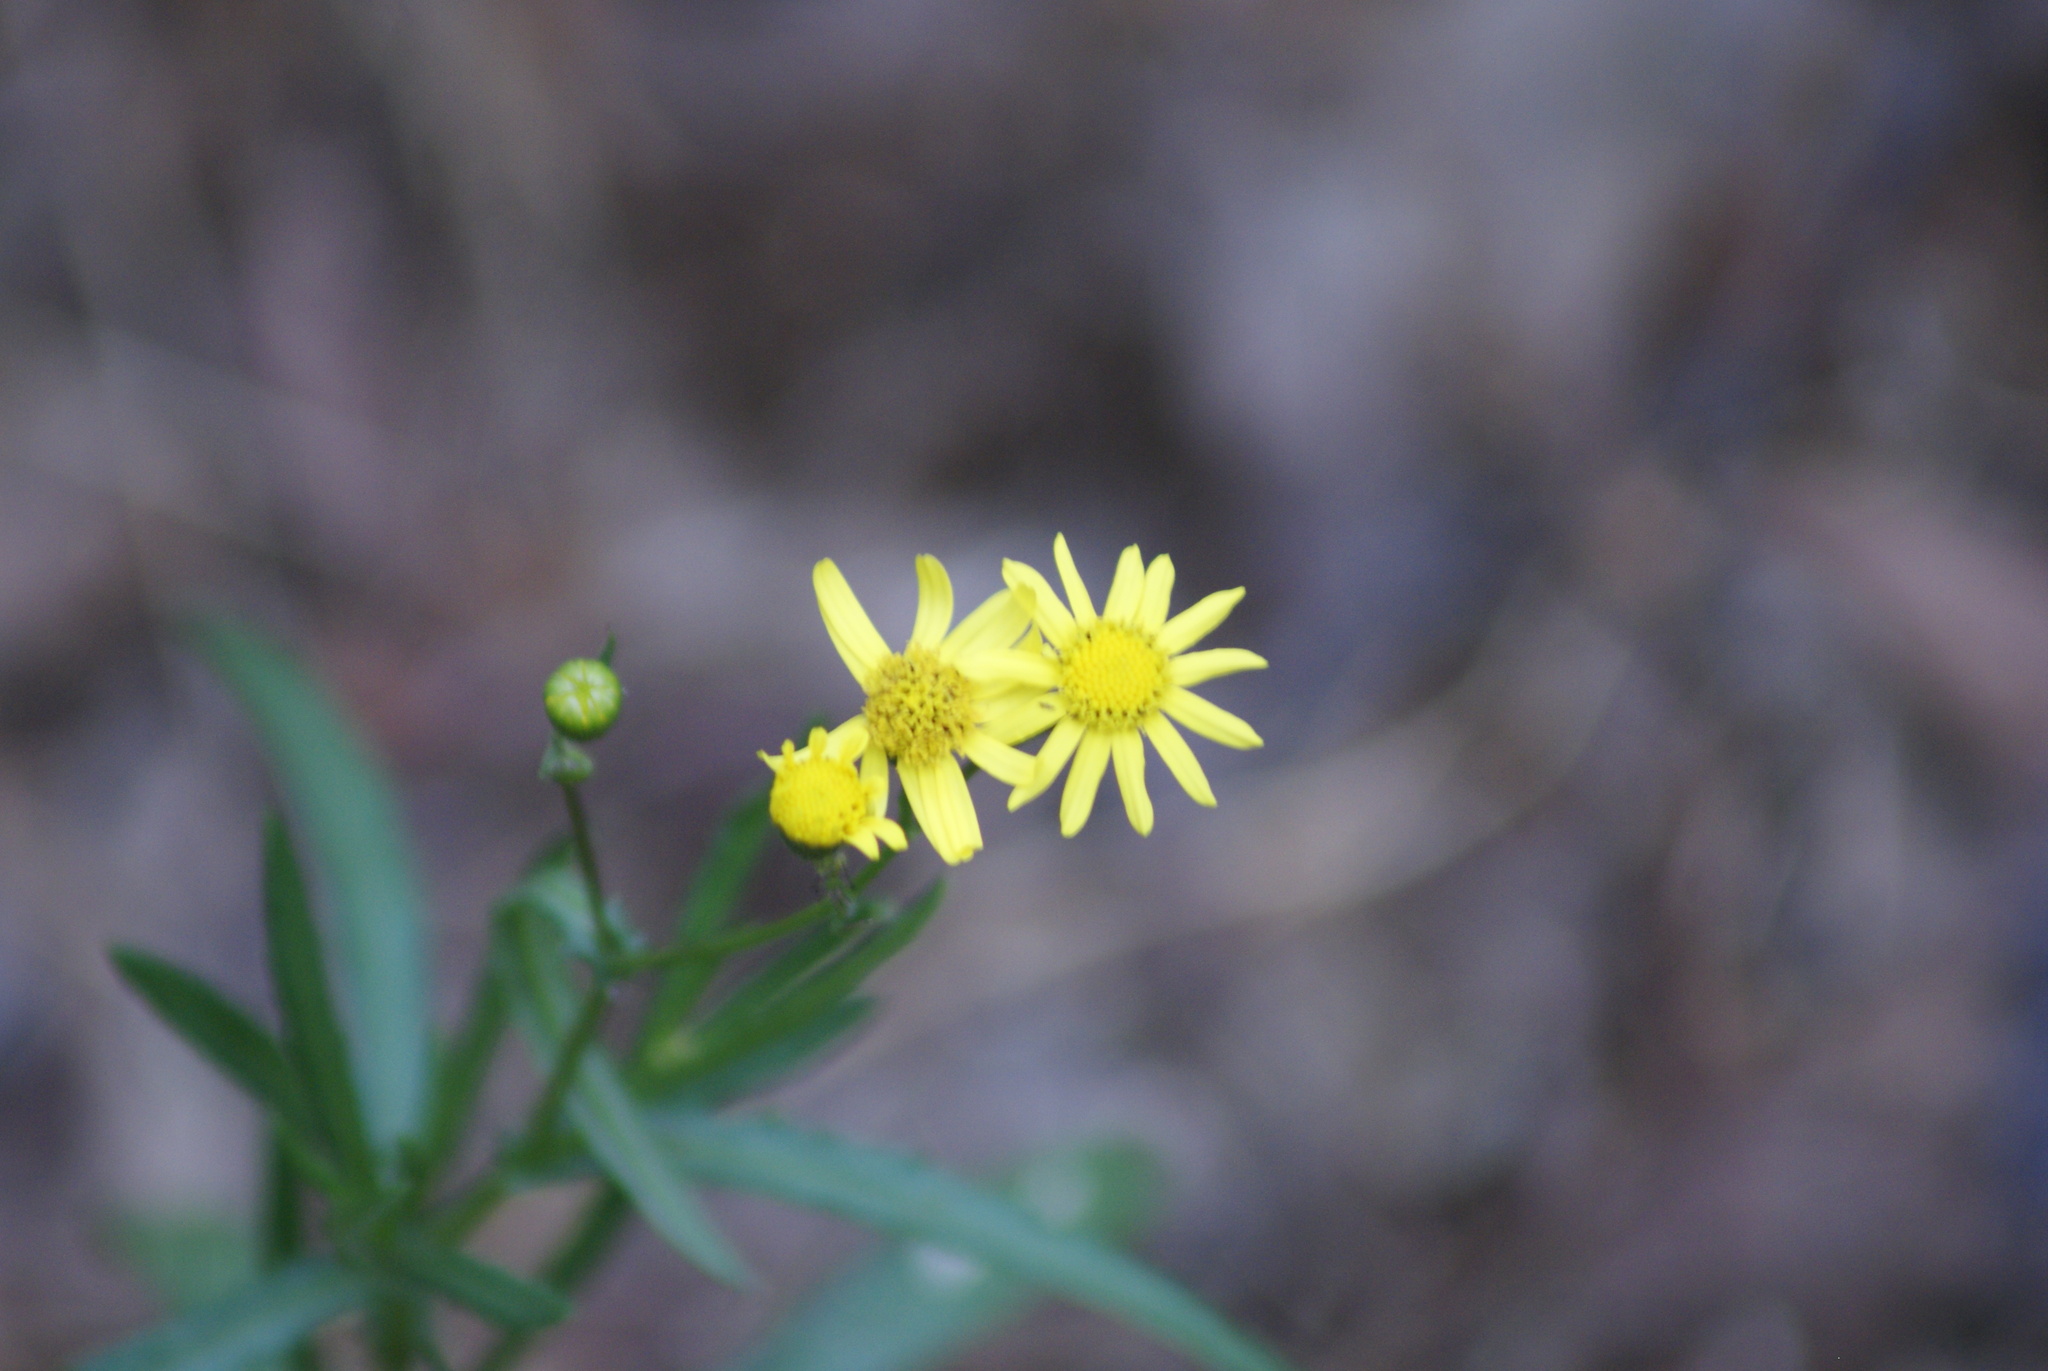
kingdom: Plantae
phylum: Tracheophyta
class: Magnoliopsida
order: Asterales
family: Asteraceae
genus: Senecio
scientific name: Senecio inaequidens
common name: Narrow-leaved ragwort
